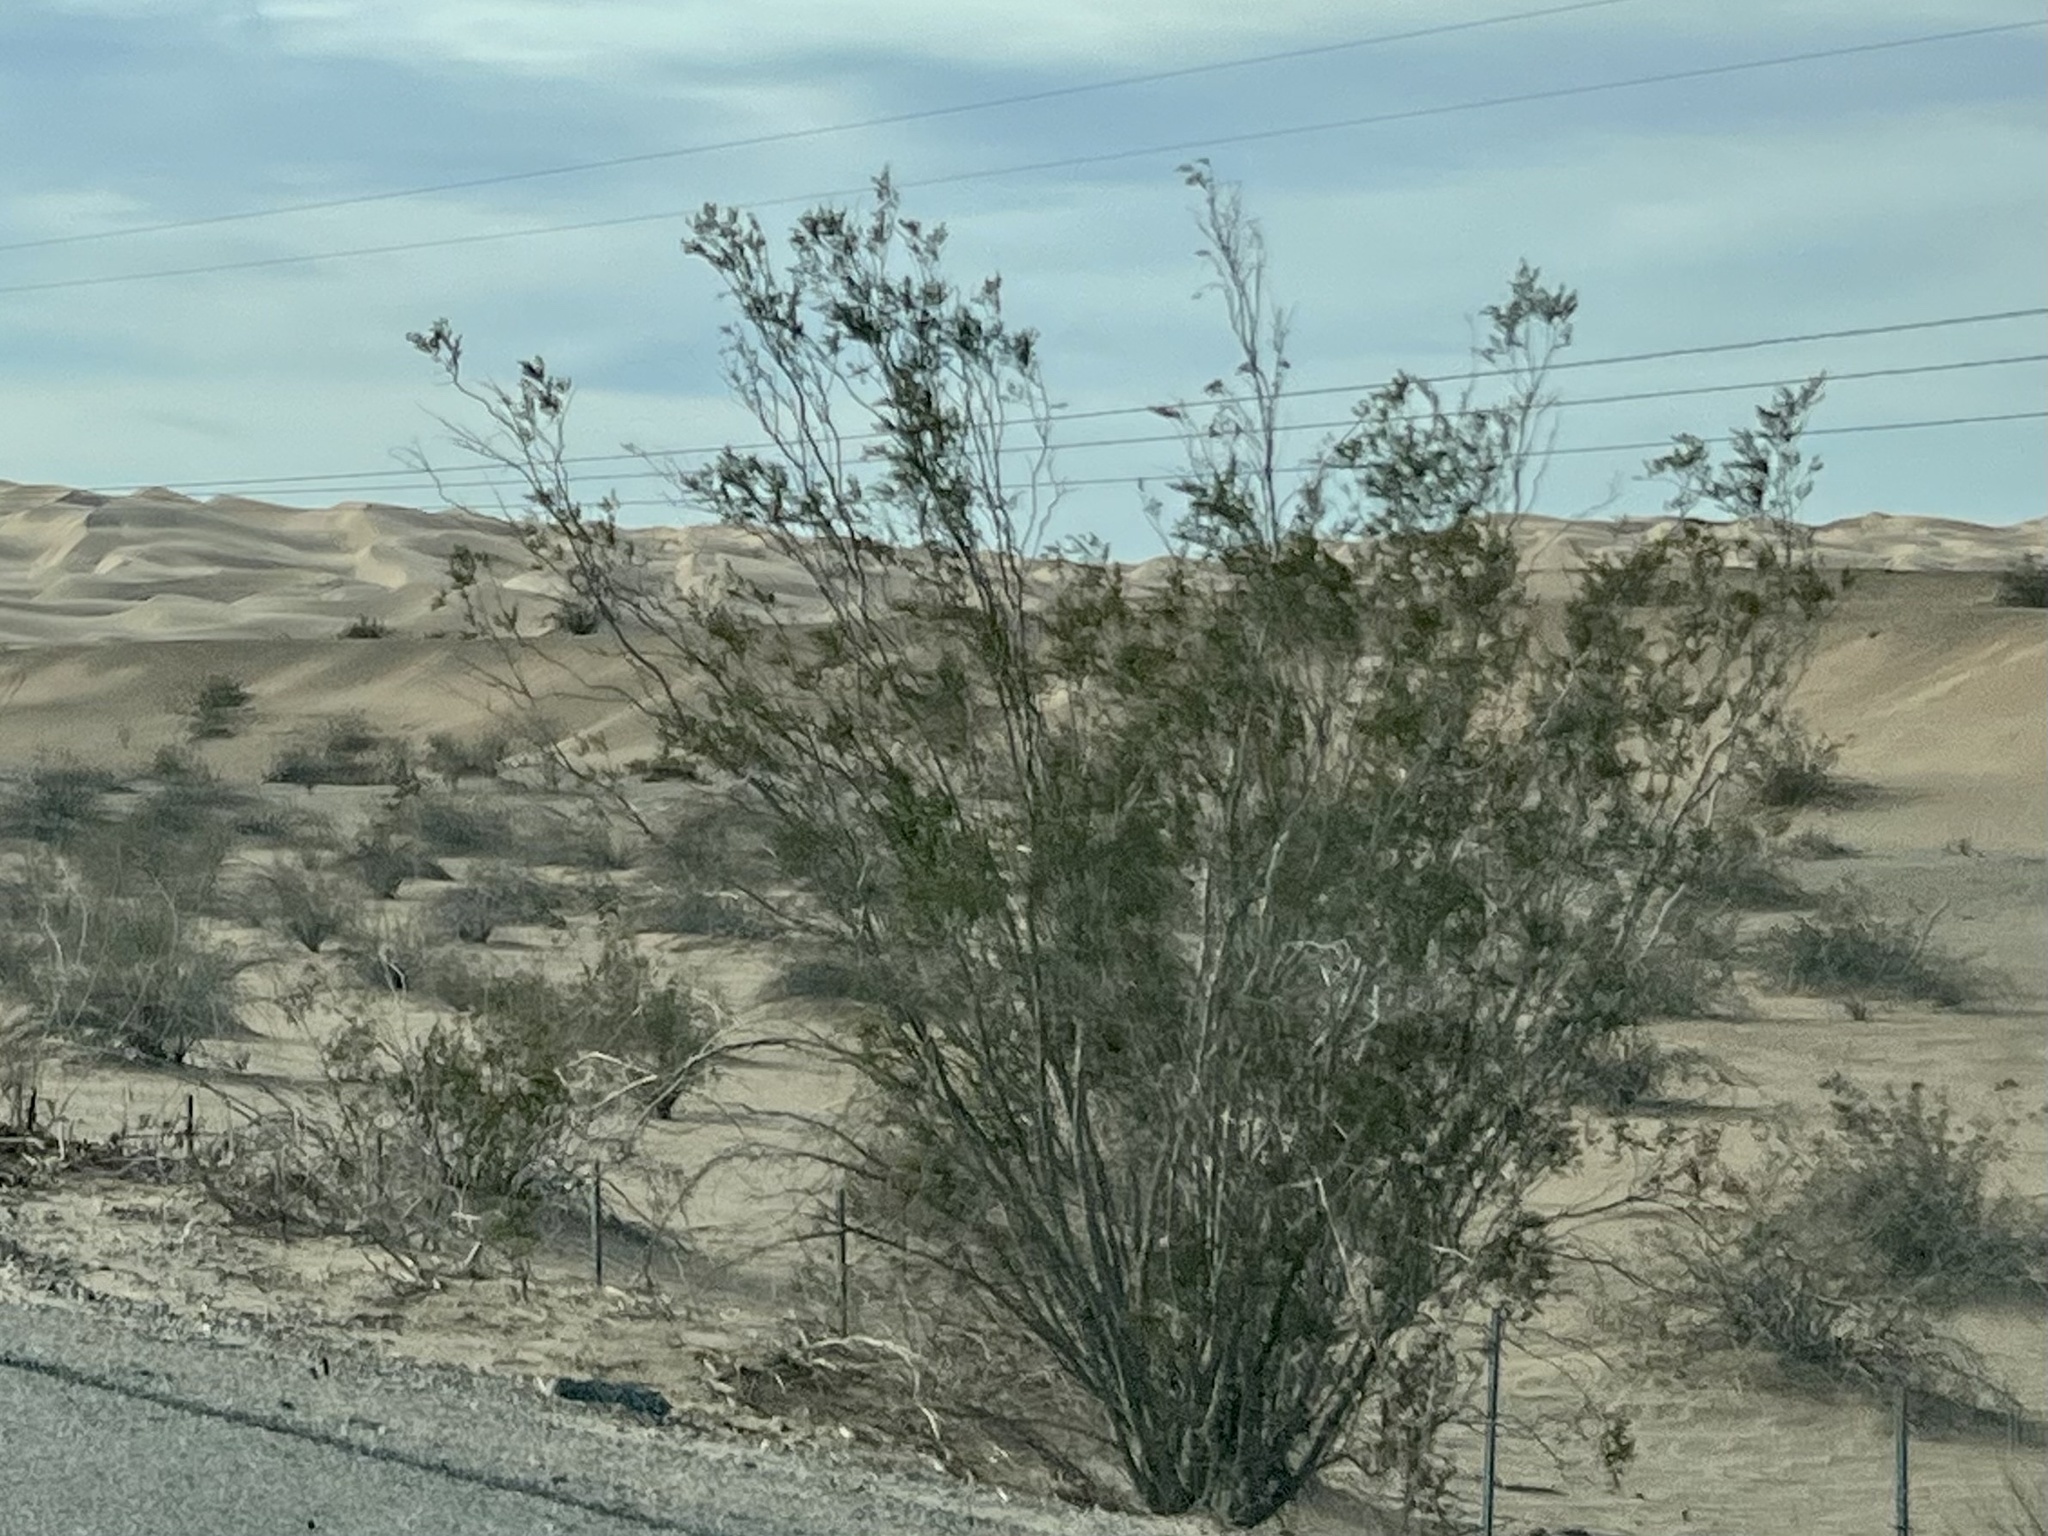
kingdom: Plantae
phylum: Tracheophyta
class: Magnoliopsida
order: Zygophyllales
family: Zygophyllaceae
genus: Larrea
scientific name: Larrea tridentata
